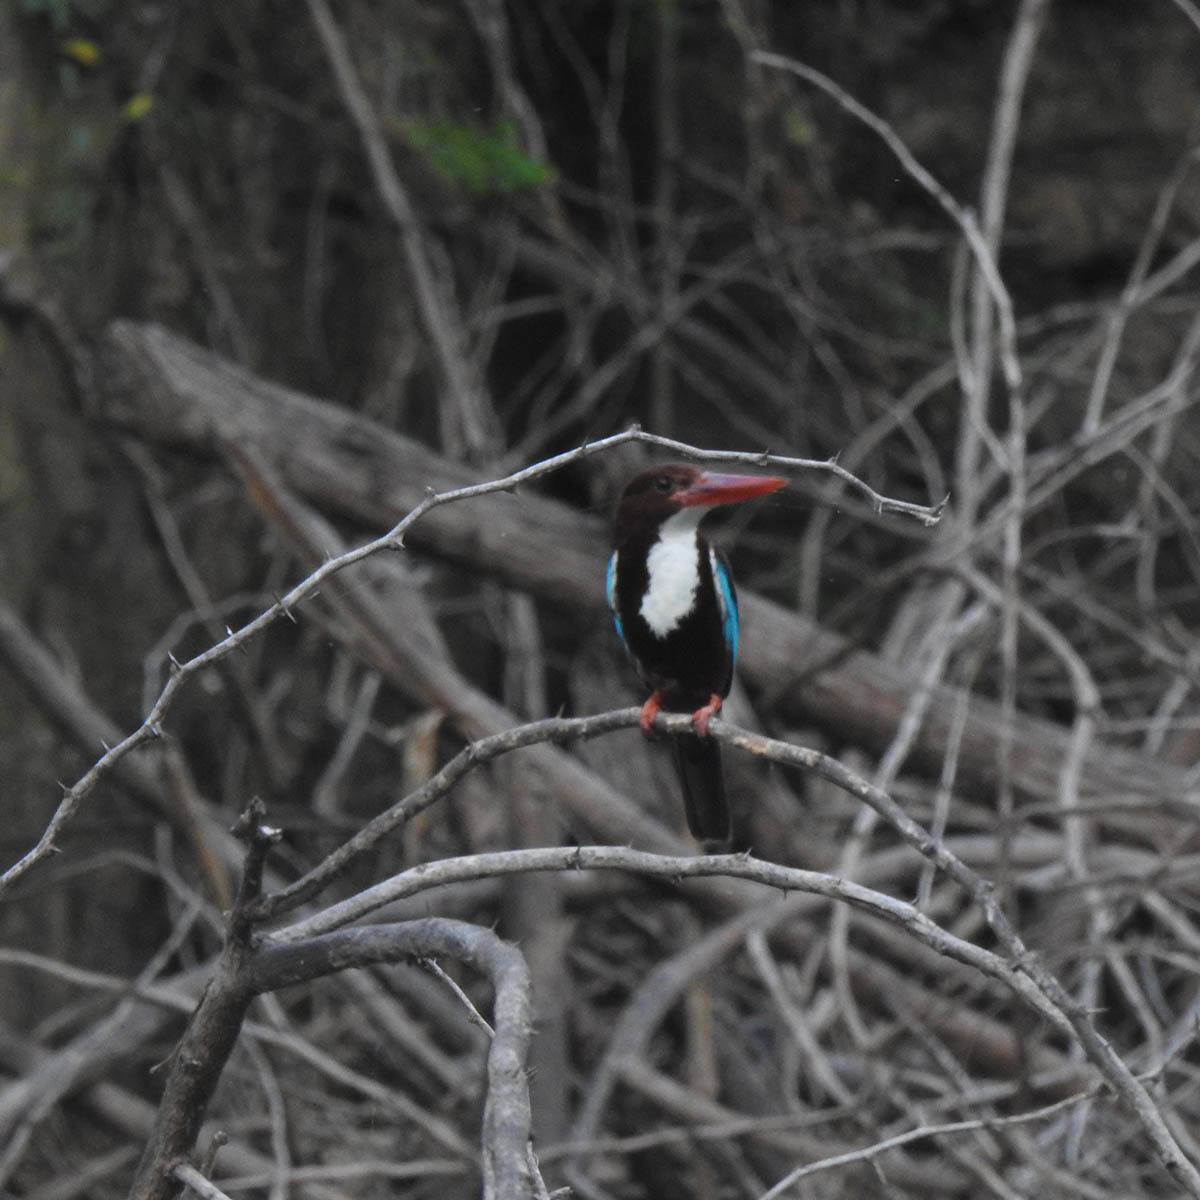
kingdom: Animalia
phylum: Chordata
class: Aves
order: Coraciiformes
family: Alcedinidae
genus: Halcyon
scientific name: Halcyon smyrnensis
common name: White-throated kingfisher
